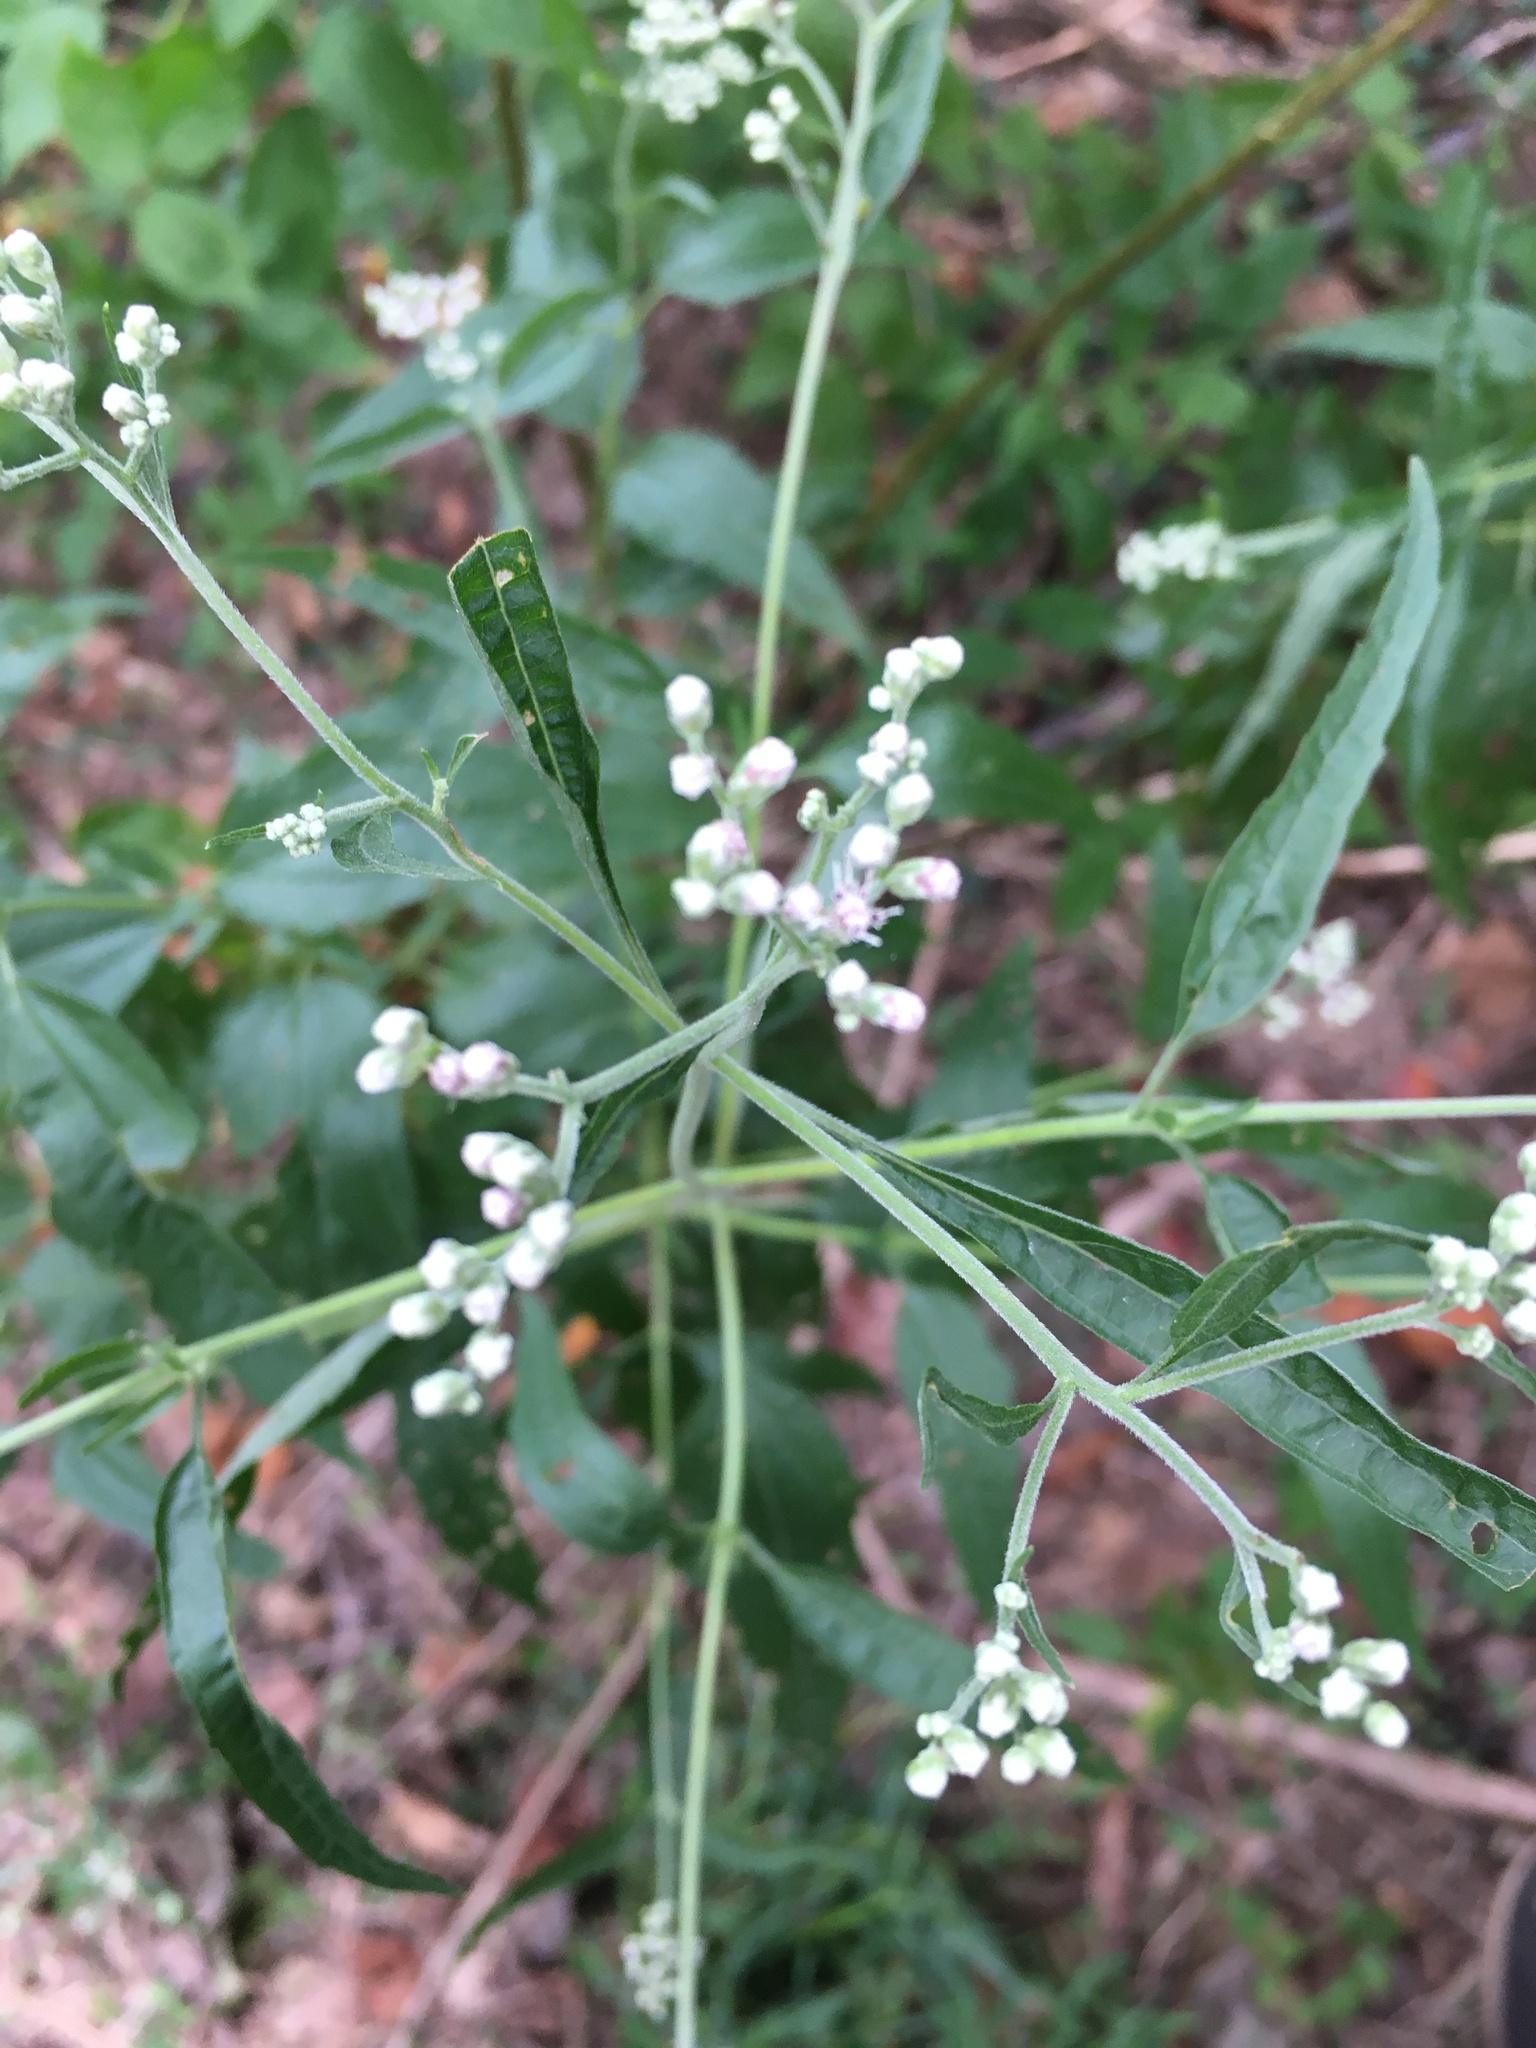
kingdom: Plantae
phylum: Tracheophyta
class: Magnoliopsida
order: Asterales
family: Asteraceae
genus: Eupatorium
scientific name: Eupatorium serotinum
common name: Late boneset
